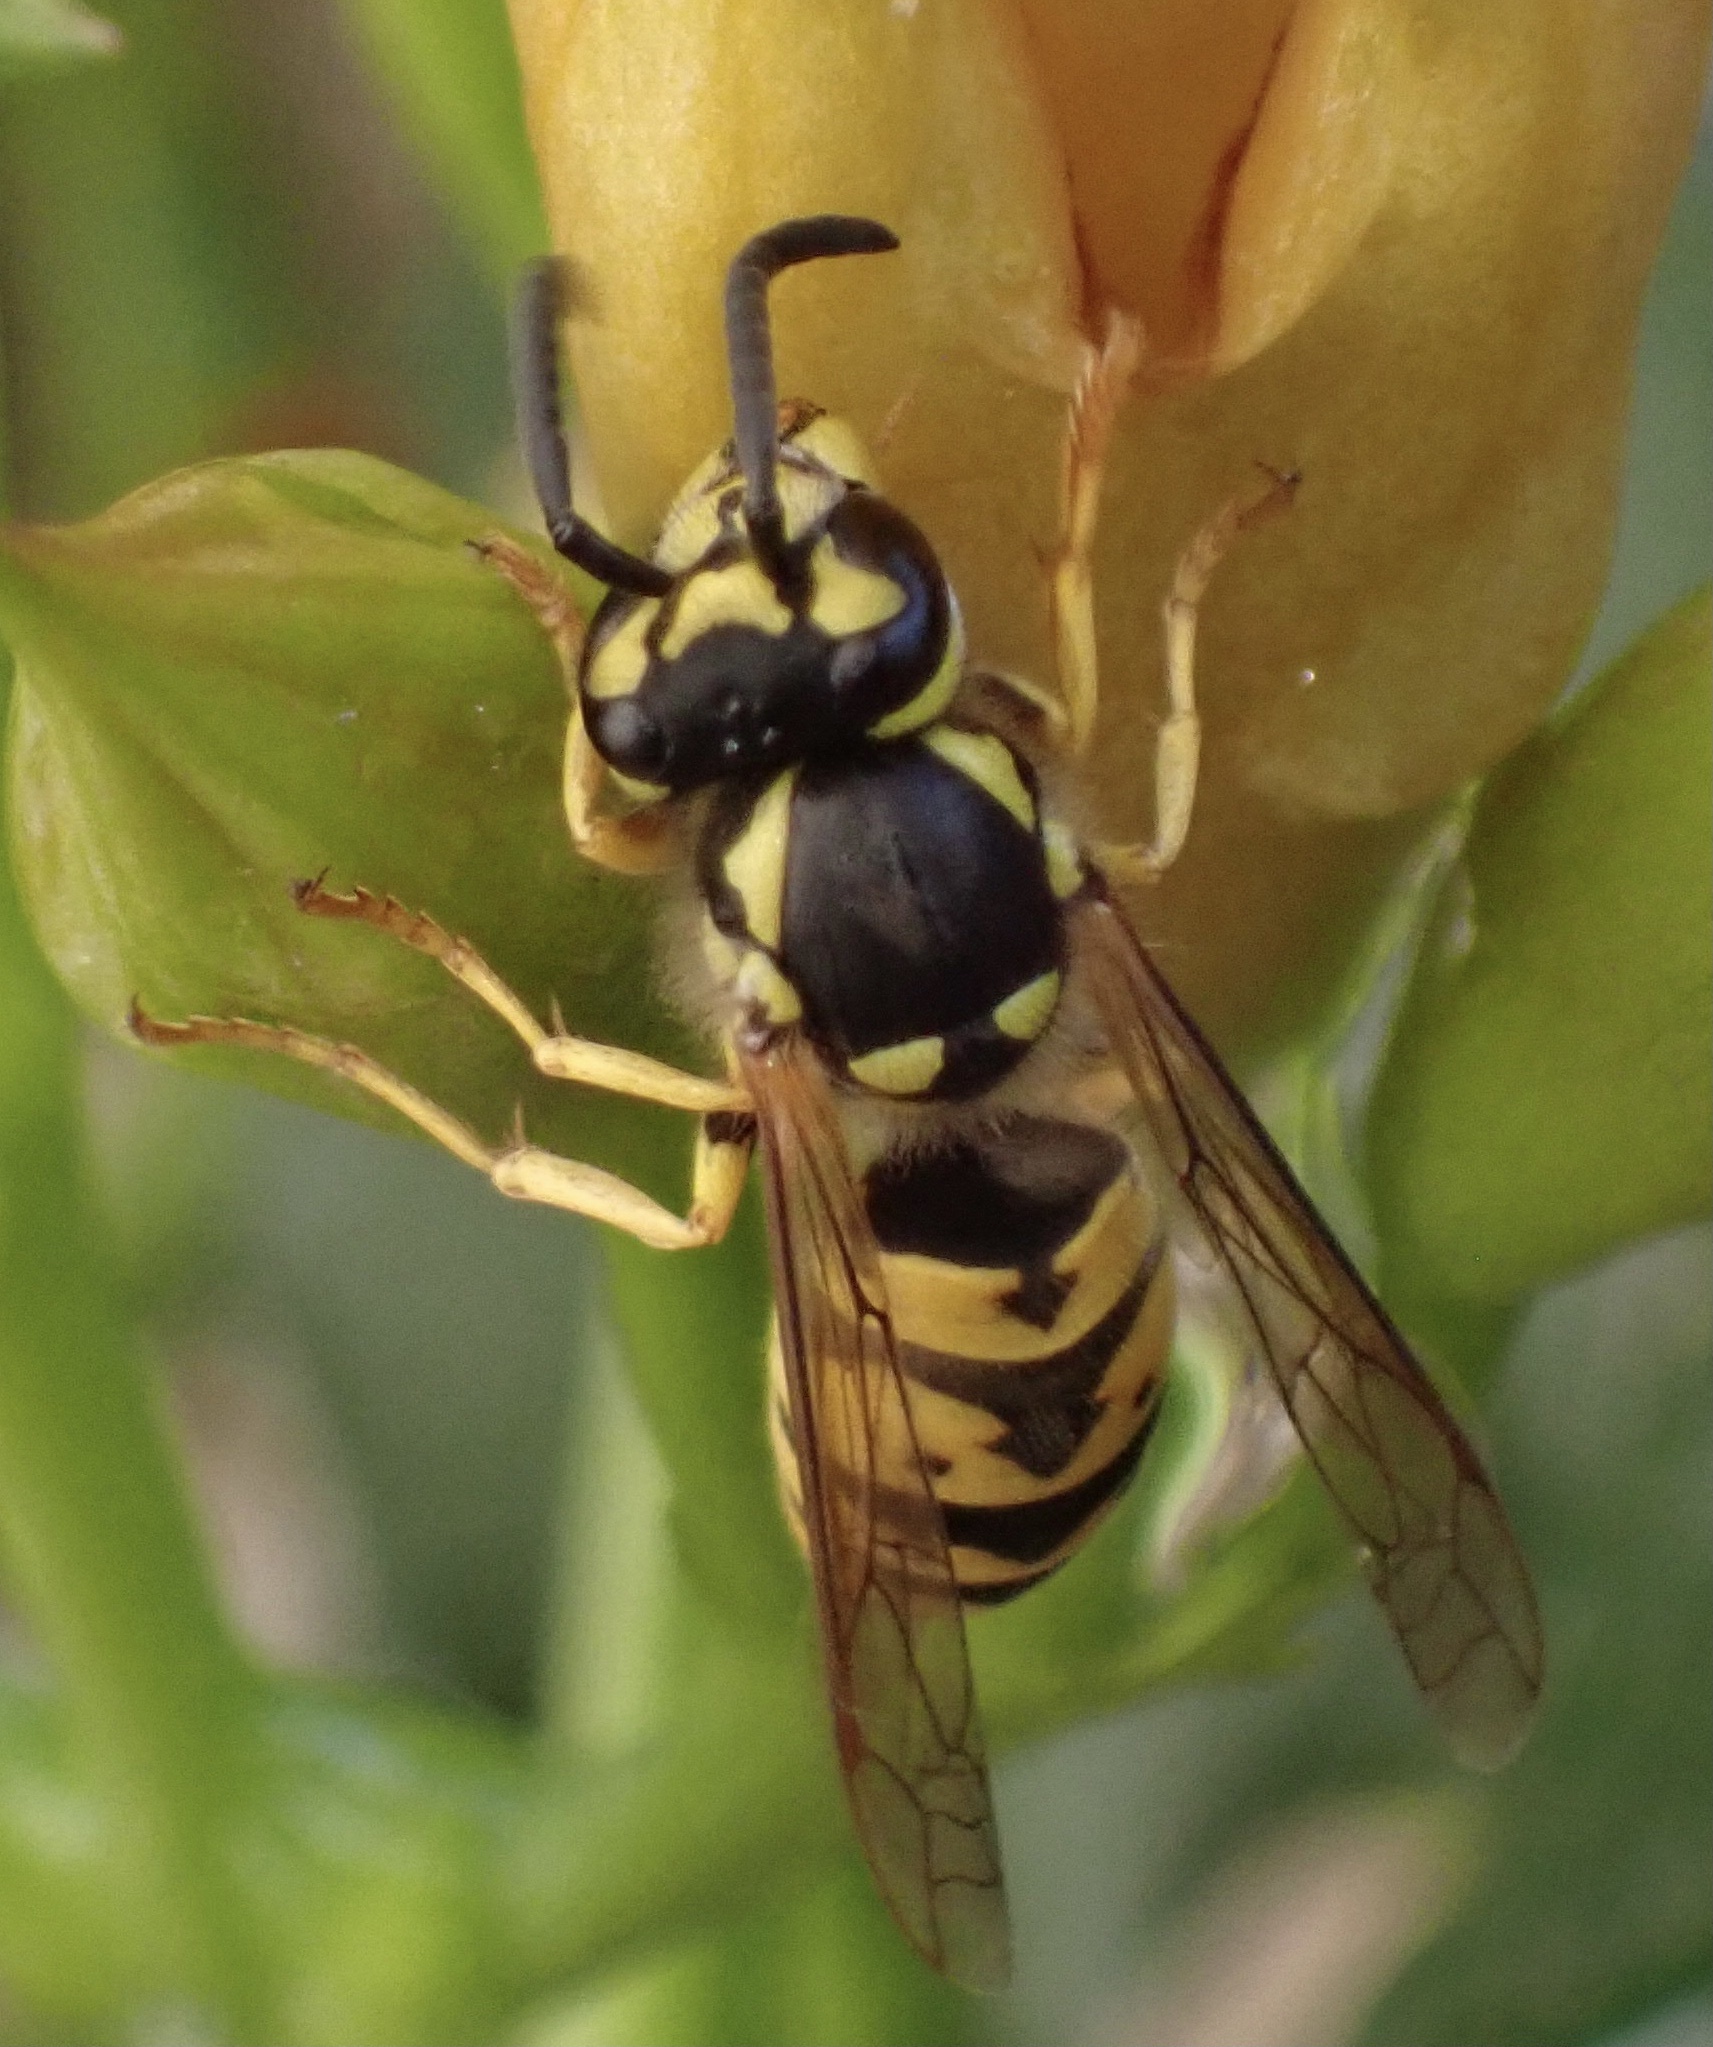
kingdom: Animalia
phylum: Arthropoda
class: Insecta
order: Hymenoptera
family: Vespidae
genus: Vespula
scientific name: Vespula germanica
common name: German wasp
